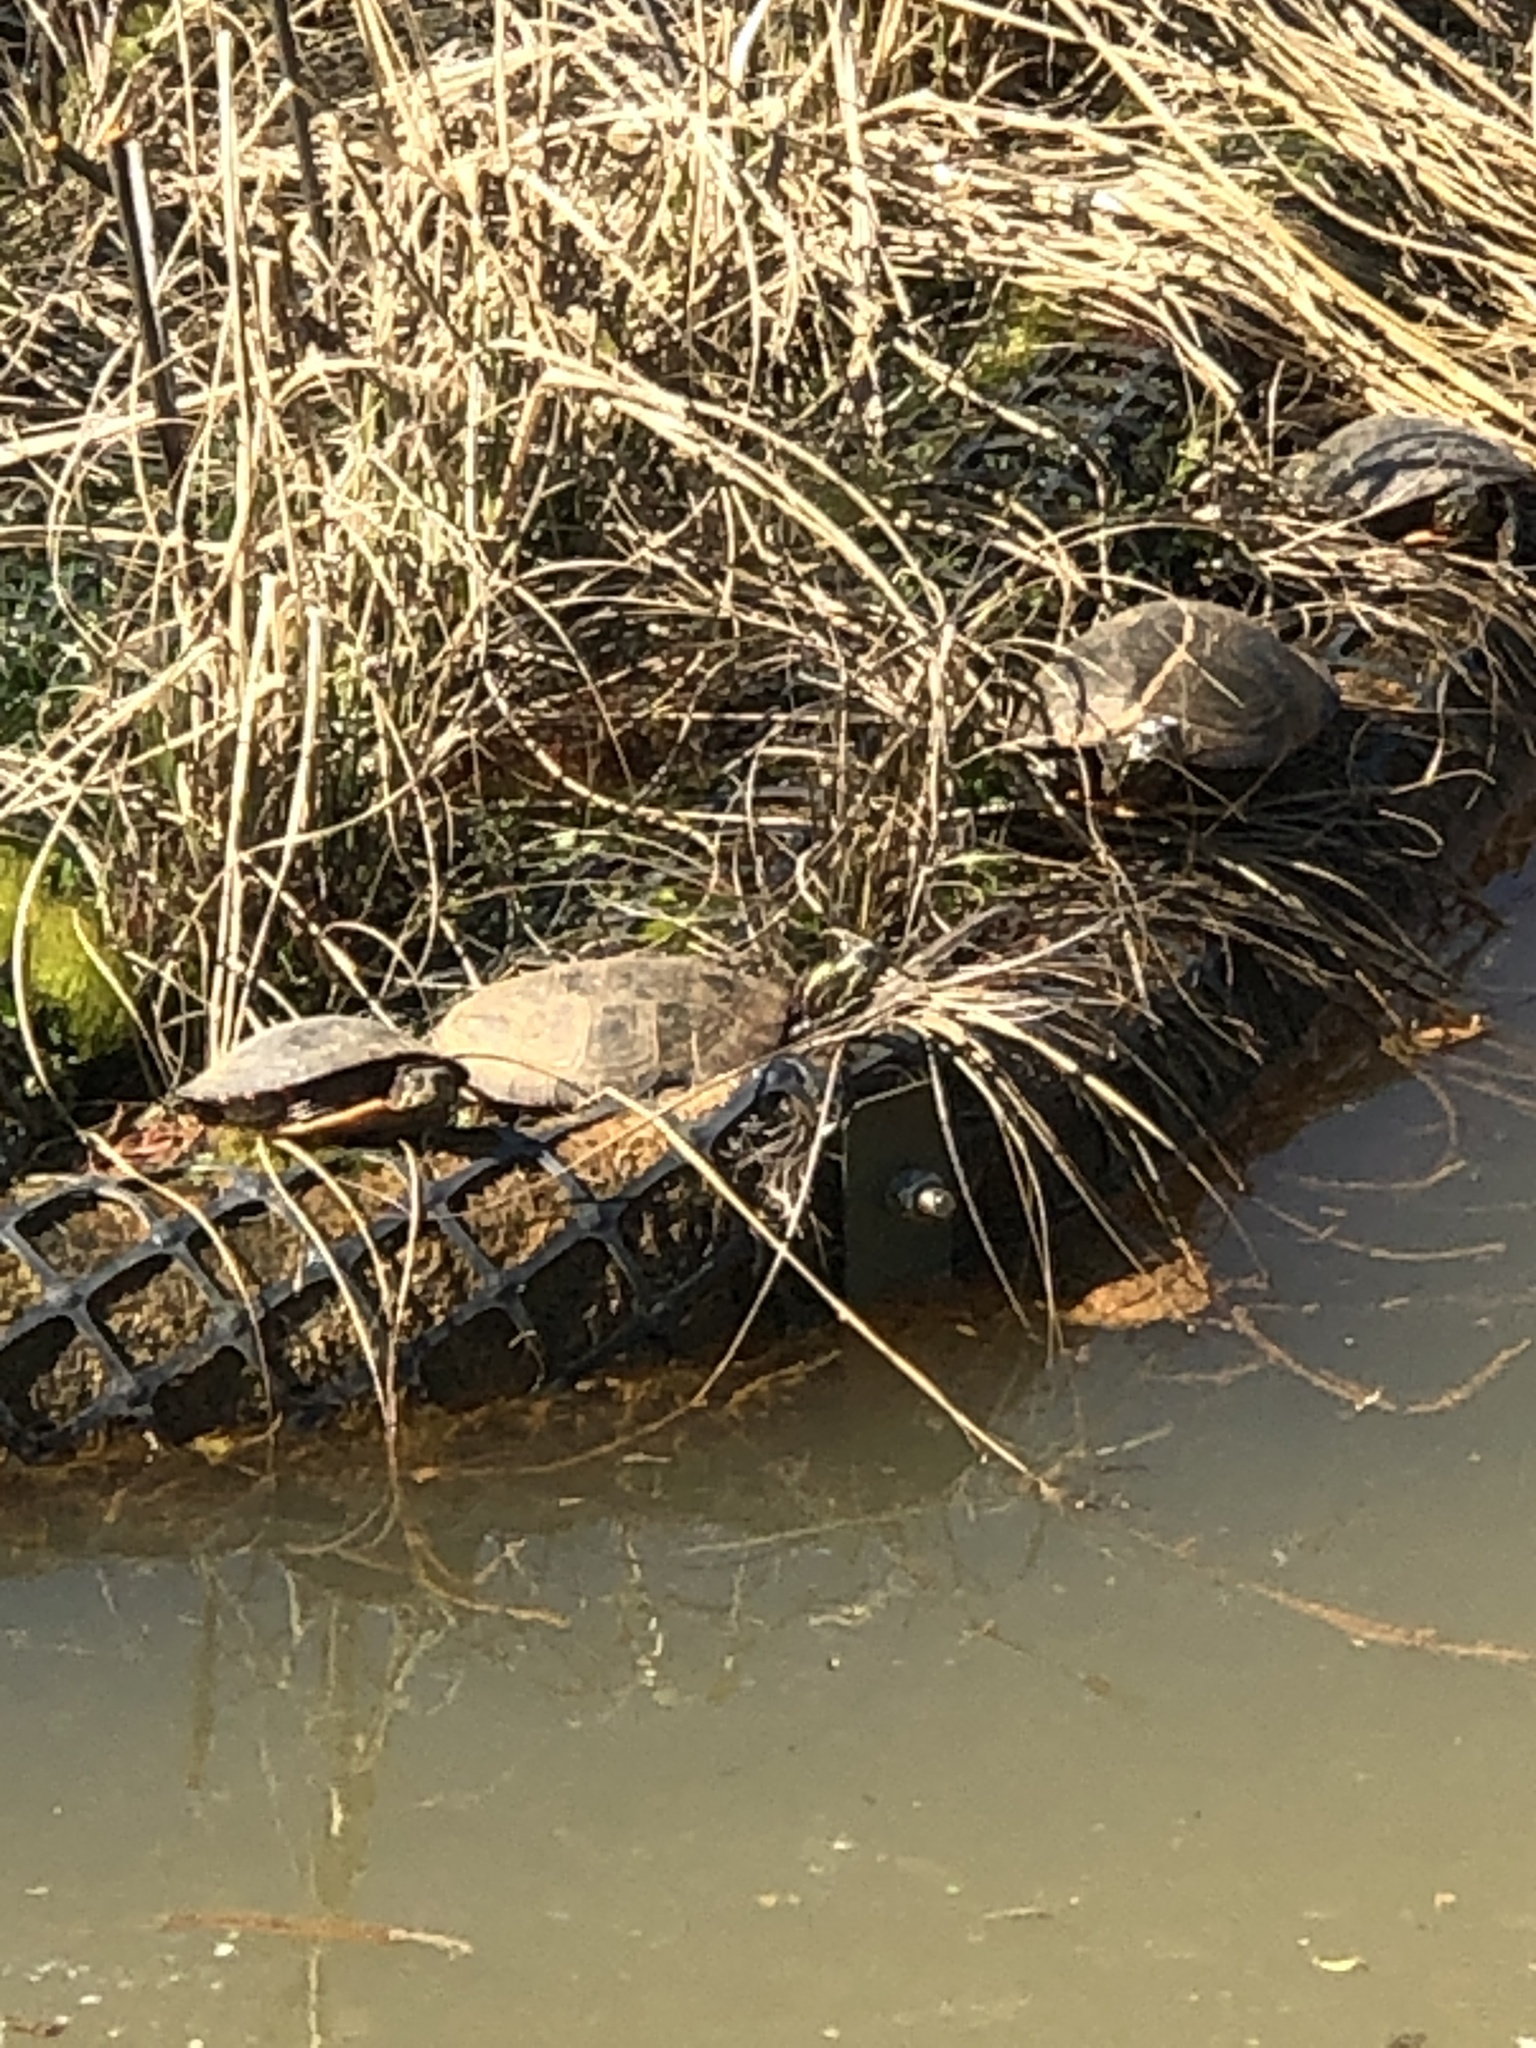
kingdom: Animalia
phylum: Chordata
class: Testudines
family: Emydidae
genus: Chrysemys
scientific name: Chrysemys picta
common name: Painted turtle
